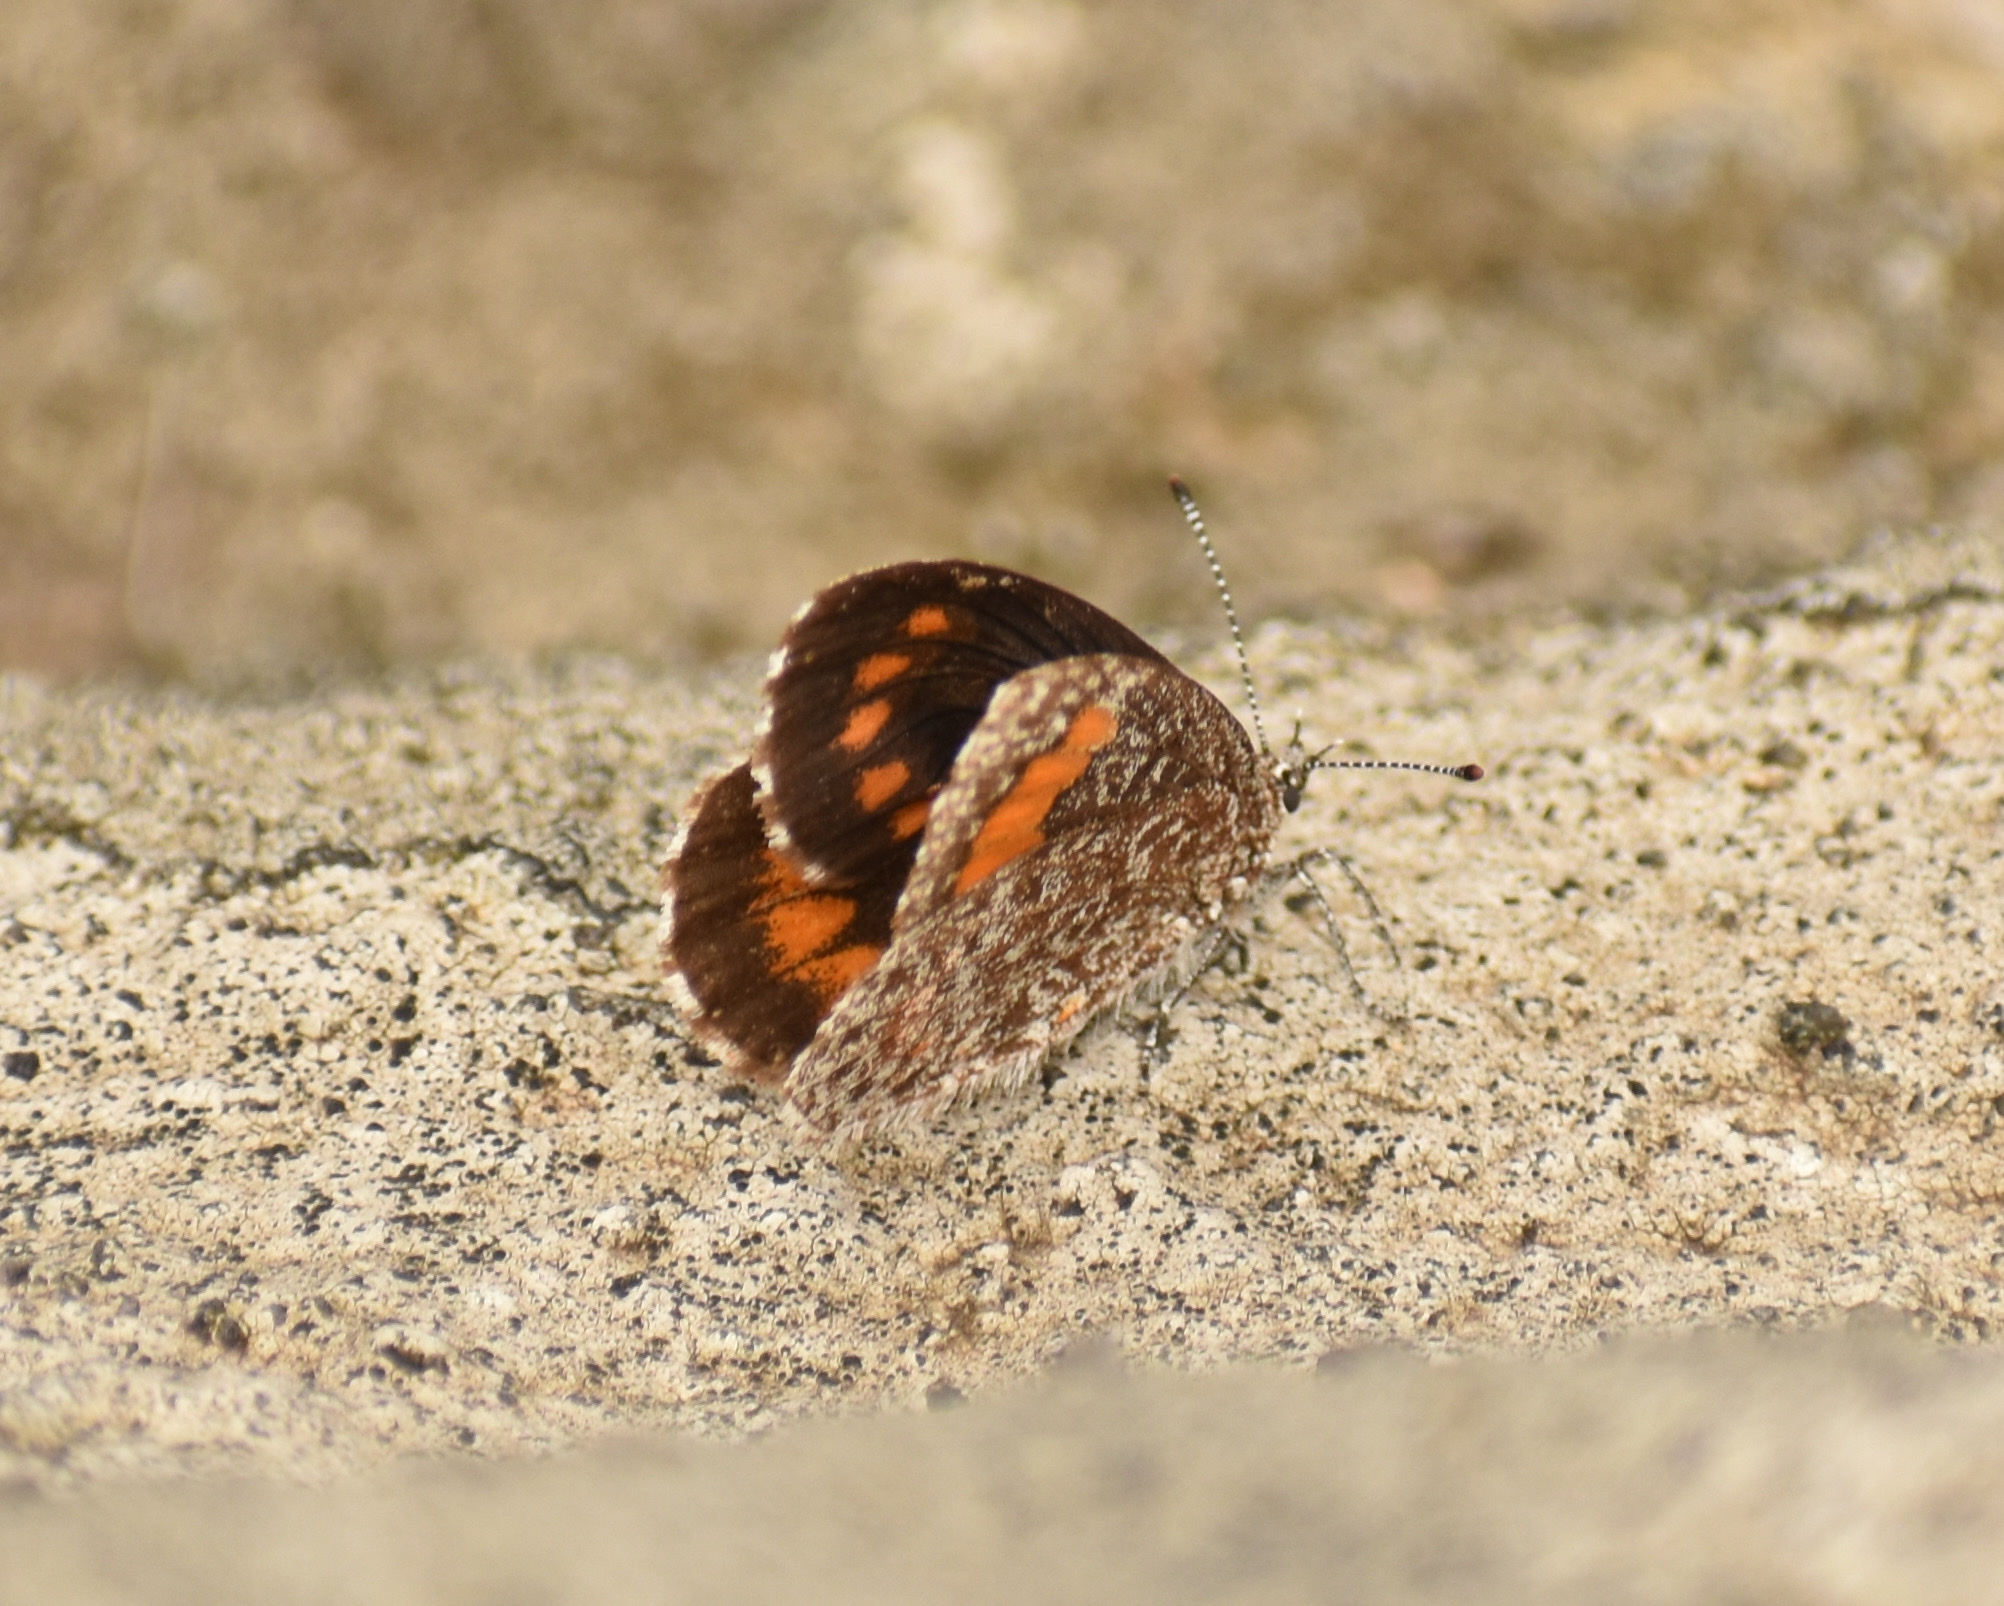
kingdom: Animalia
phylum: Arthropoda
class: Insecta
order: Lepidoptera
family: Lycaenidae
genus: Durbania
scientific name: Durbania amakosa
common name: Amakosa rocksitter
